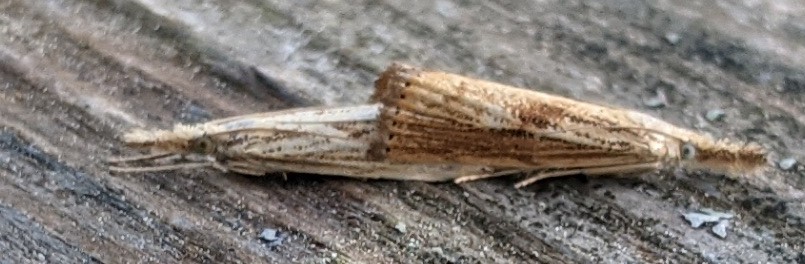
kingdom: Animalia
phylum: Arthropoda
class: Insecta
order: Lepidoptera
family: Crambidae
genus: Agriphila
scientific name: Agriphila ruricolellus
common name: Lesser vagabond sod webworm
